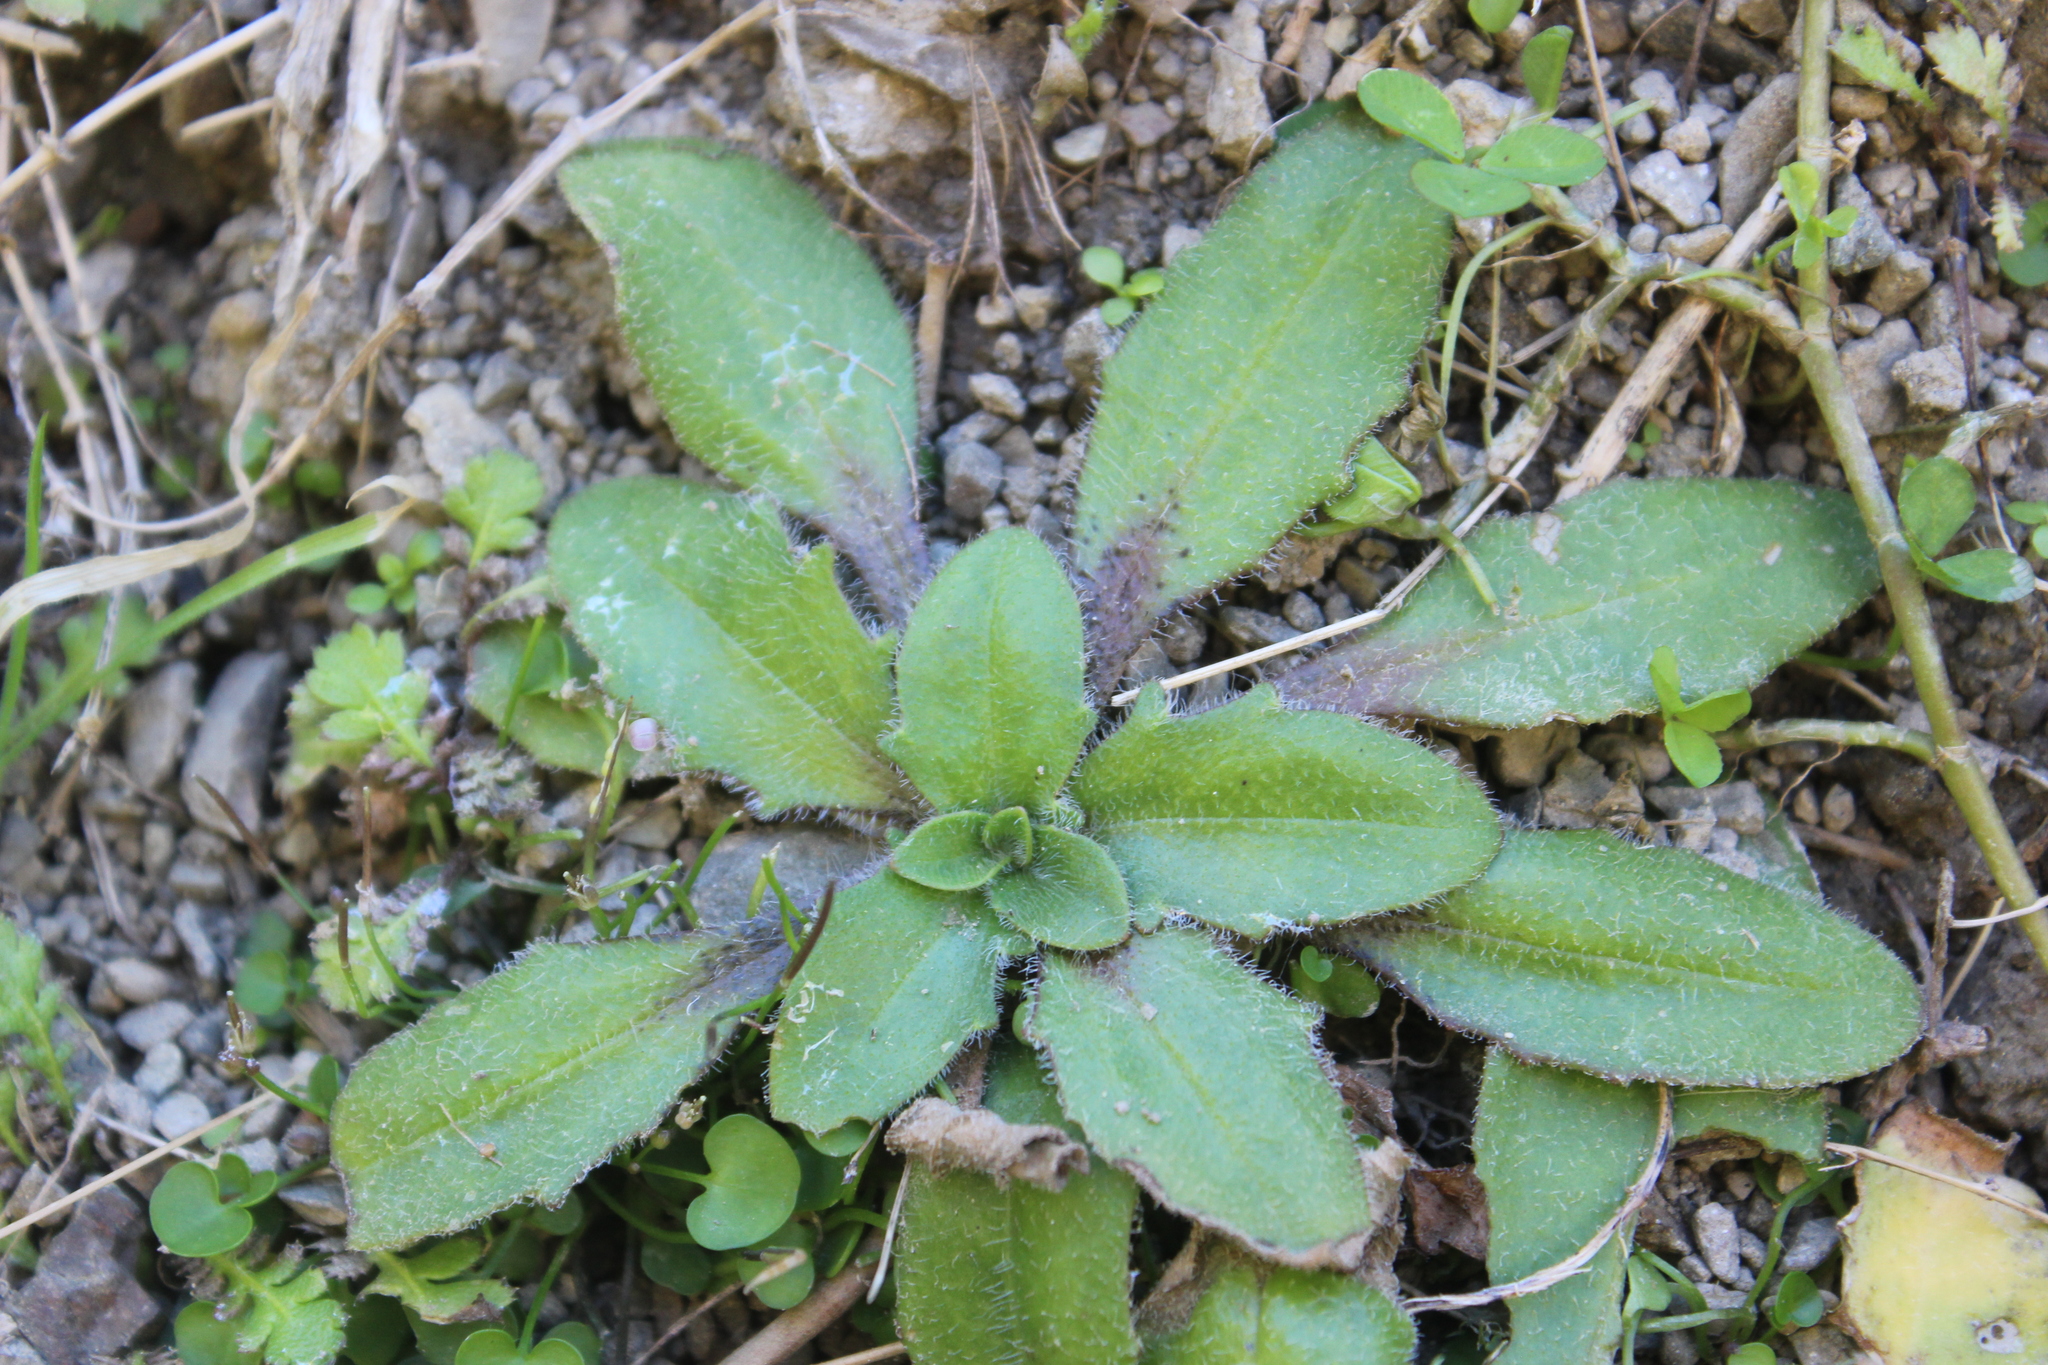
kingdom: Plantae
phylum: Tracheophyta
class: Magnoliopsida
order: Lamiales
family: Plantaginaceae
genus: Plantago
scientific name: Plantago raoulii
